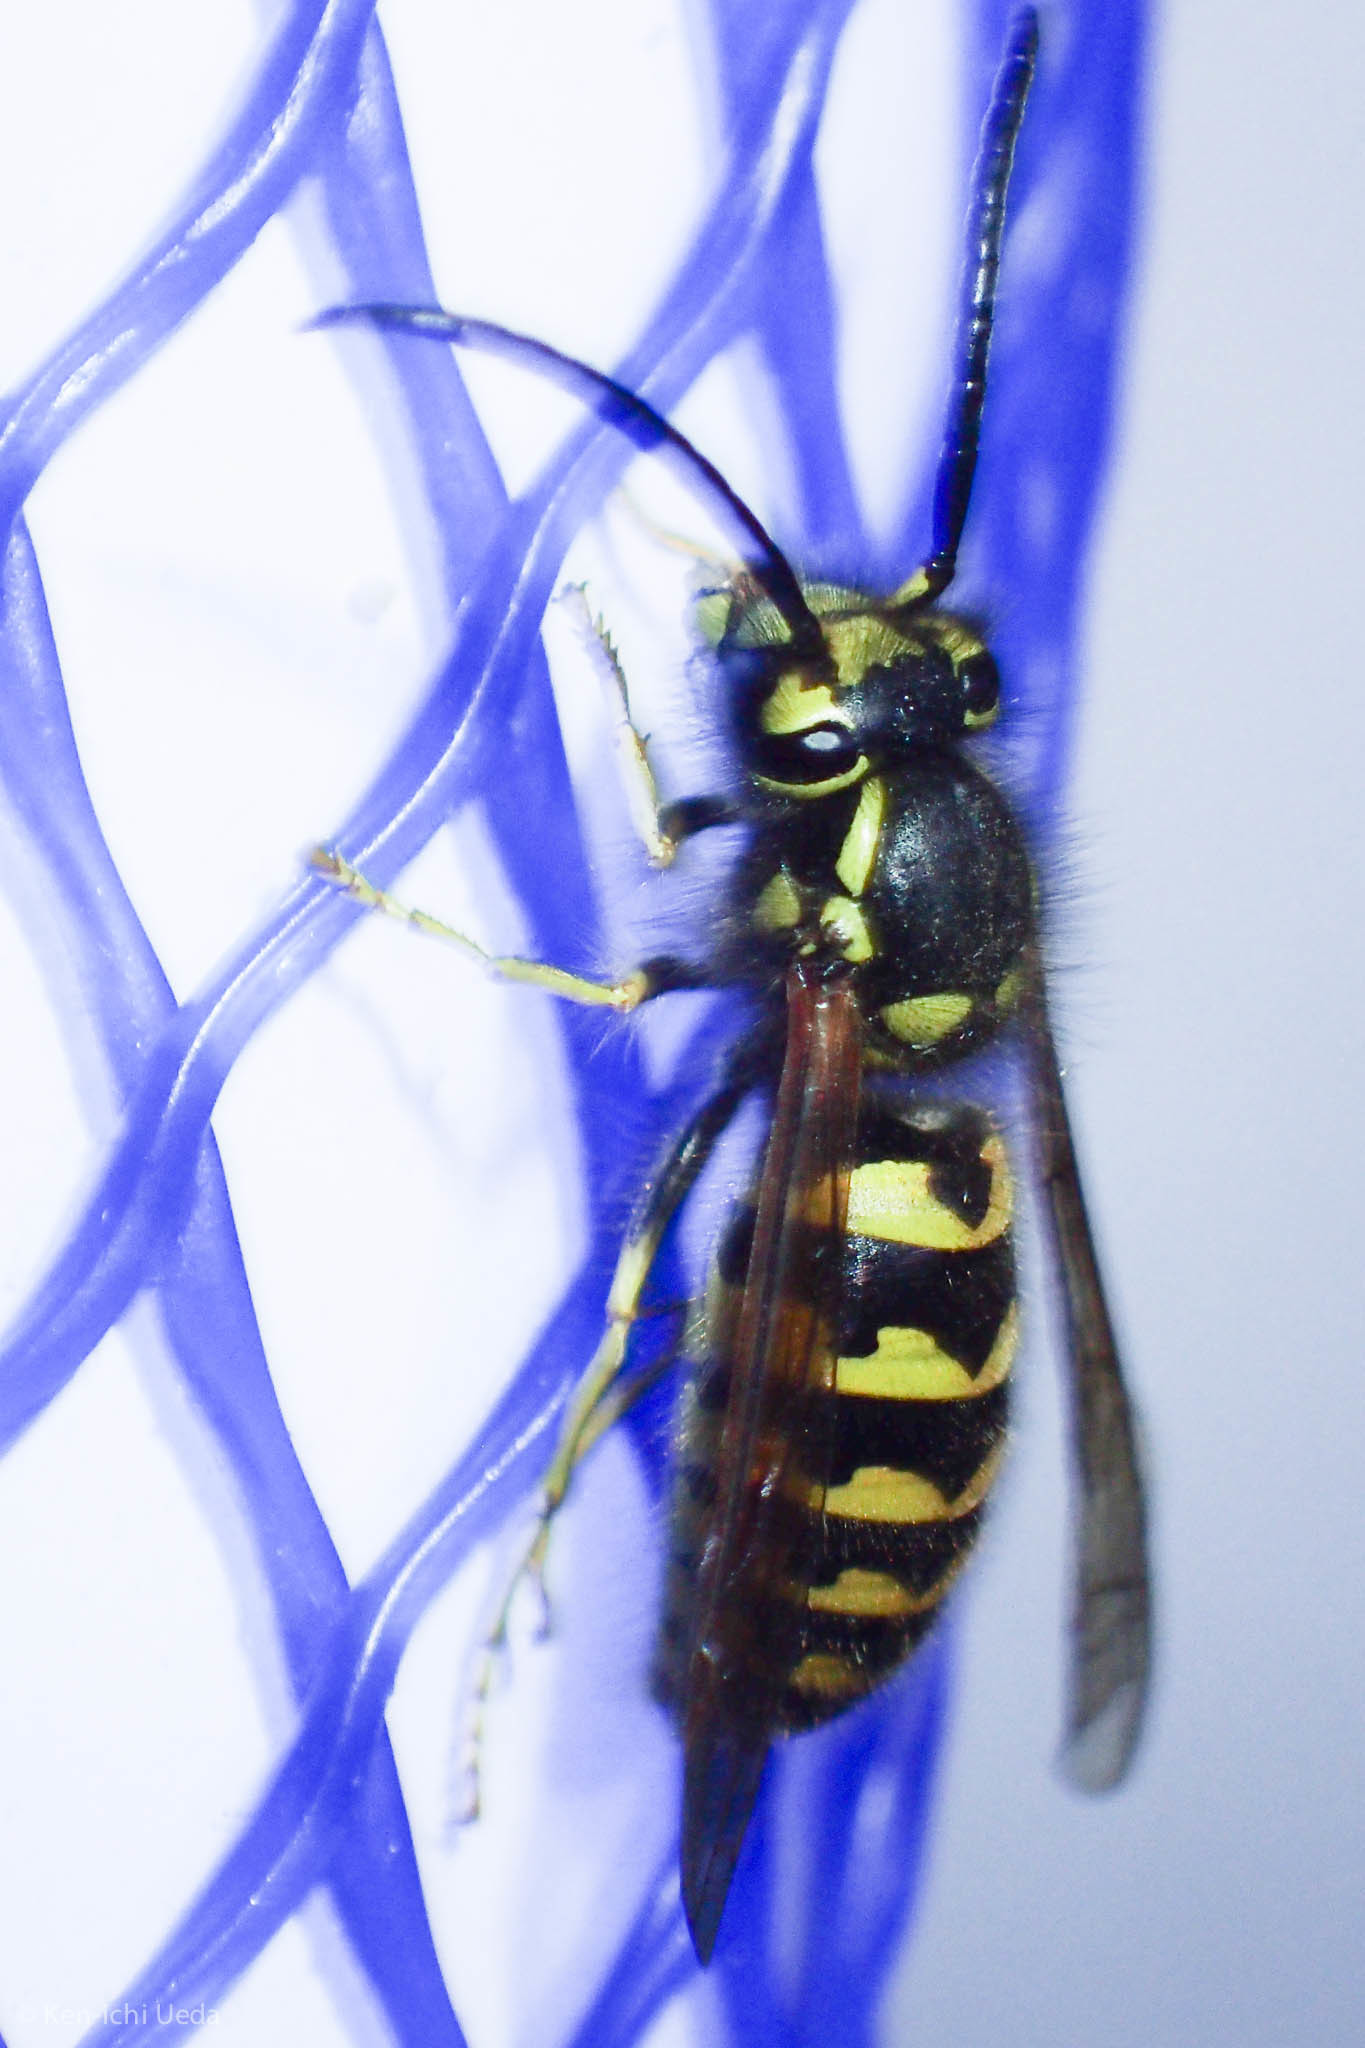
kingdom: Animalia
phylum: Arthropoda
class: Insecta
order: Hymenoptera
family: Vespidae
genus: Vespula
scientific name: Vespula pensylvanica
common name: Western yellowjacket
